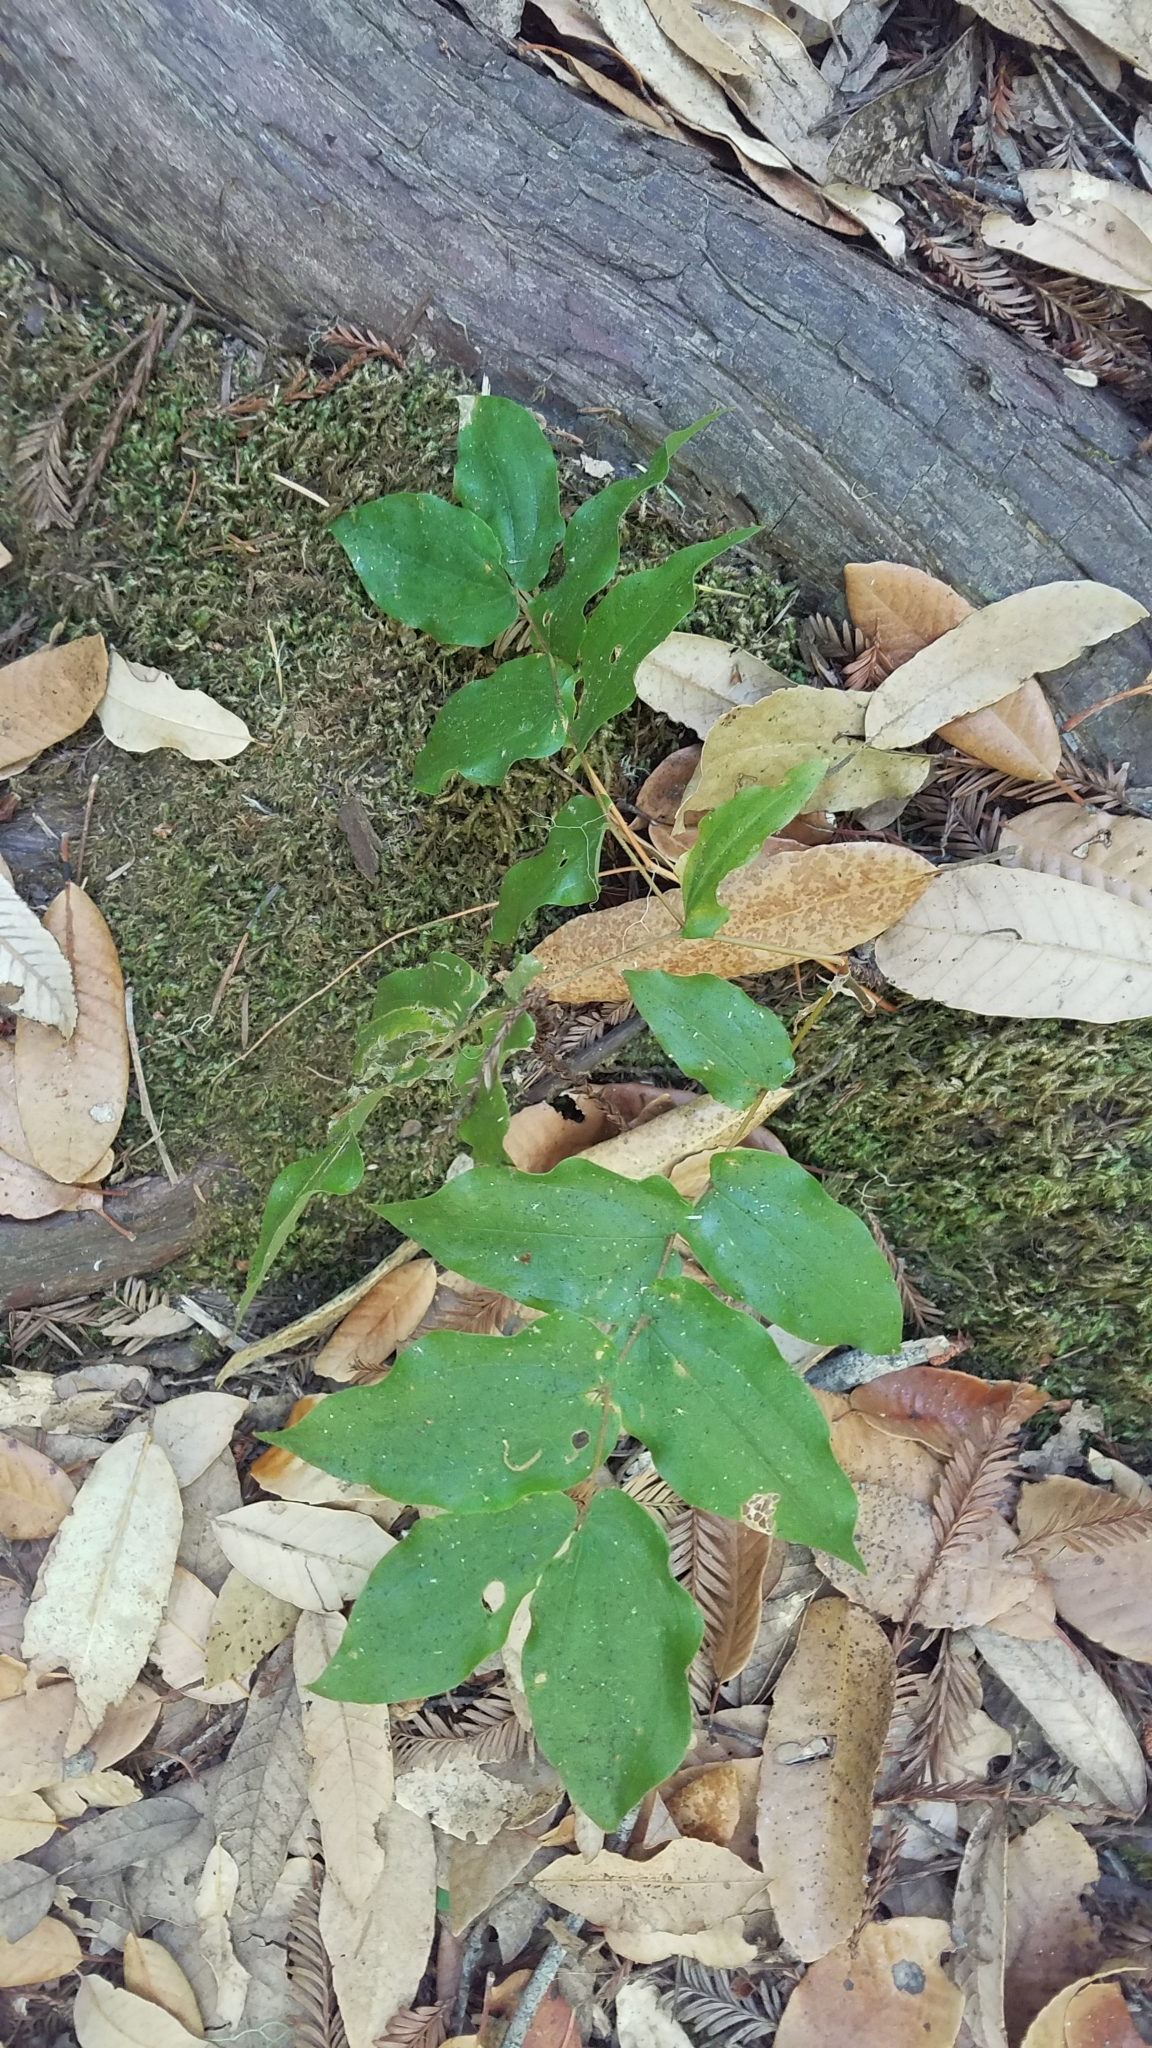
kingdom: Plantae
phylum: Tracheophyta
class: Liliopsida
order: Liliales
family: Liliaceae
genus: Prosartes
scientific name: Prosartes hookeri
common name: Fairy-bells
